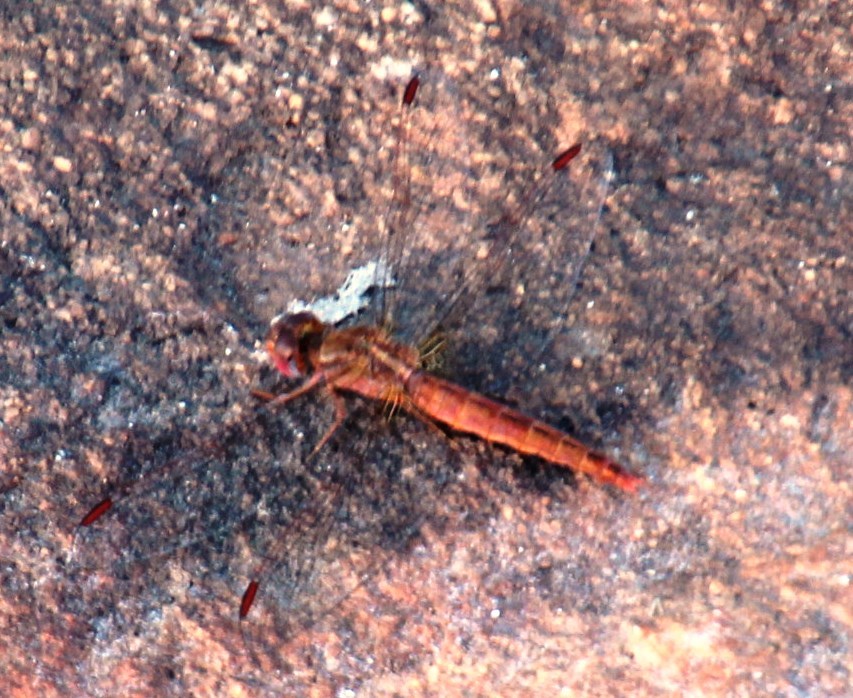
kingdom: Animalia
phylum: Arthropoda
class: Insecta
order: Odonata
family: Libellulidae
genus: Crocothemis
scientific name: Crocothemis sanguinolenta
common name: Little scarlet
